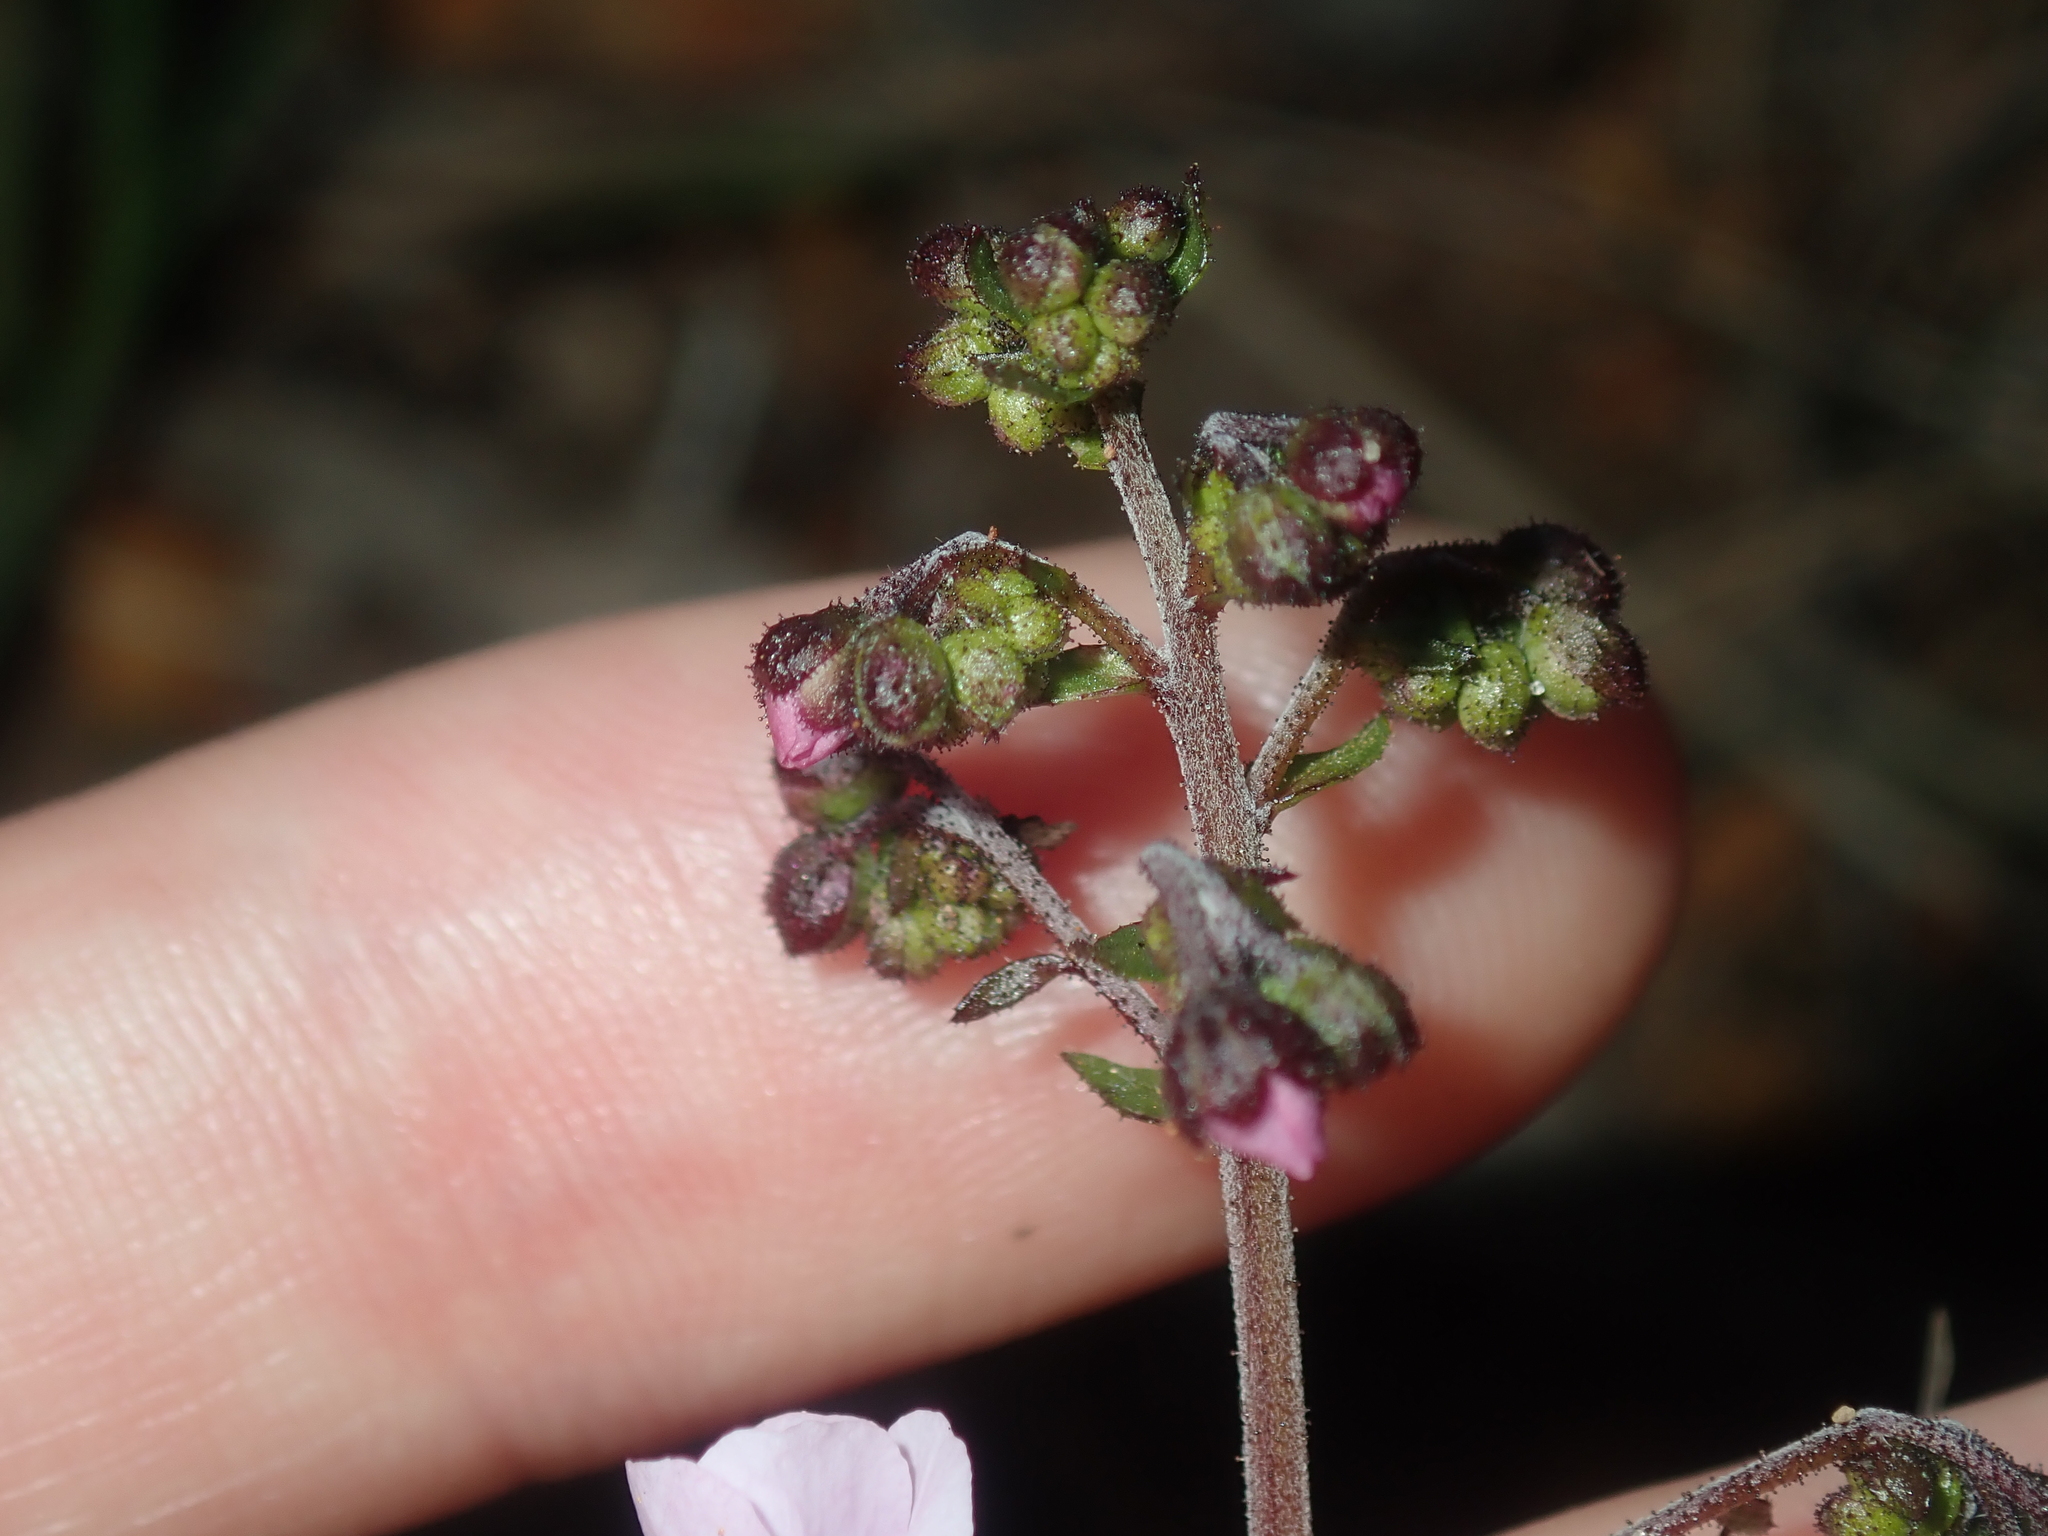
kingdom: Plantae
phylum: Tracheophyta
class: Magnoliopsida
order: Sapindales
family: Sapindaceae
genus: Diplopeltis
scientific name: Diplopeltis huegelii
